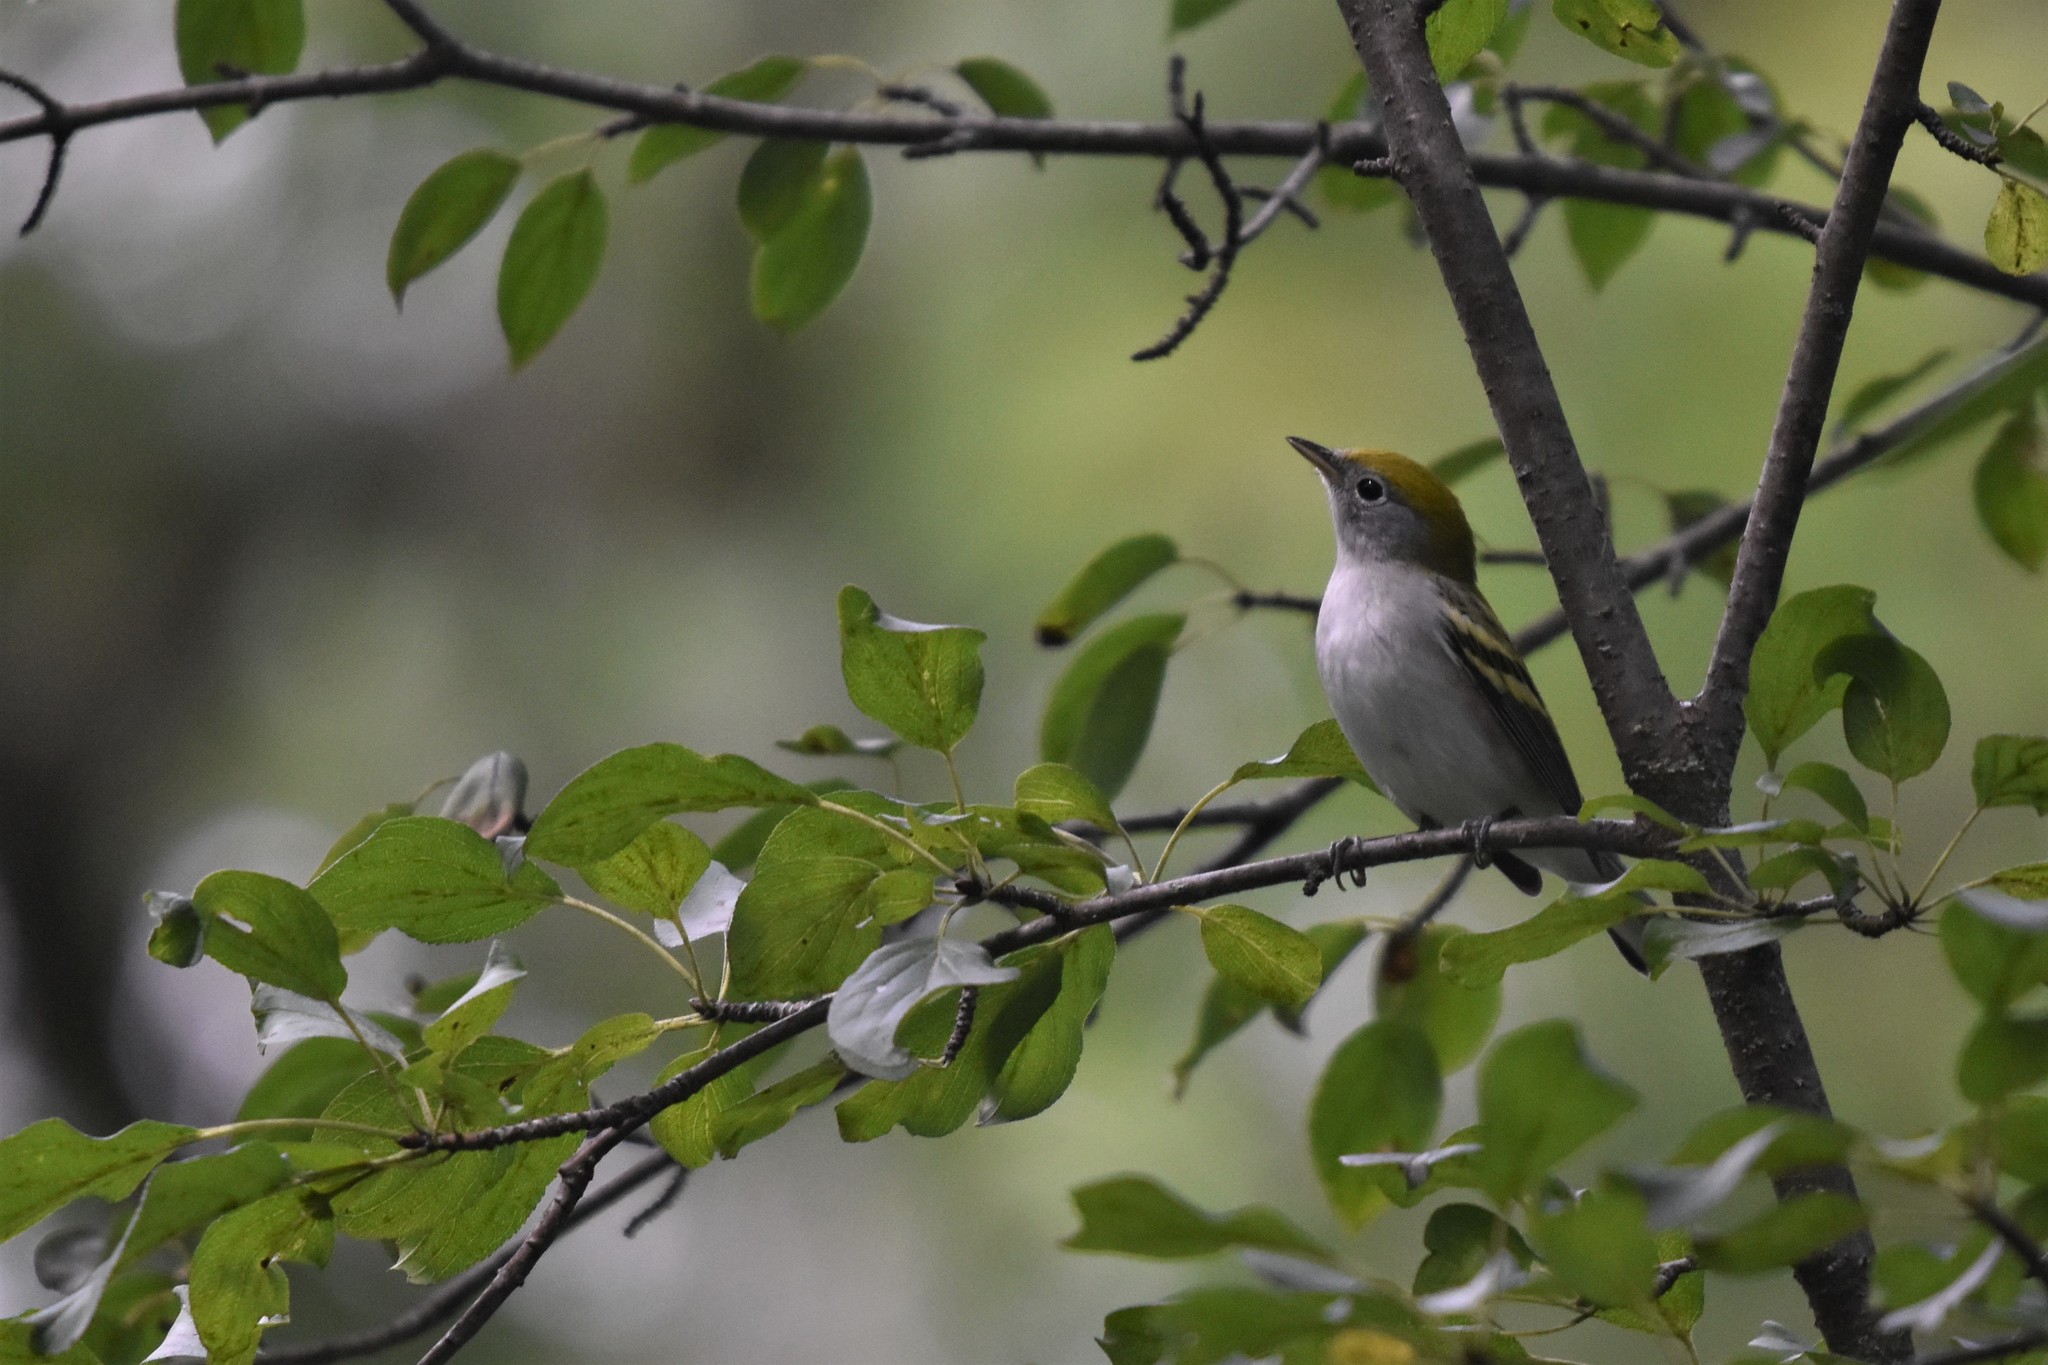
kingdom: Animalia
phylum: Chordata
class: Aves
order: Passeriformes
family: Parulidae
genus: Setophaga
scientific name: Setophaga pensylvanica
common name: Chestnut-sided warbler
